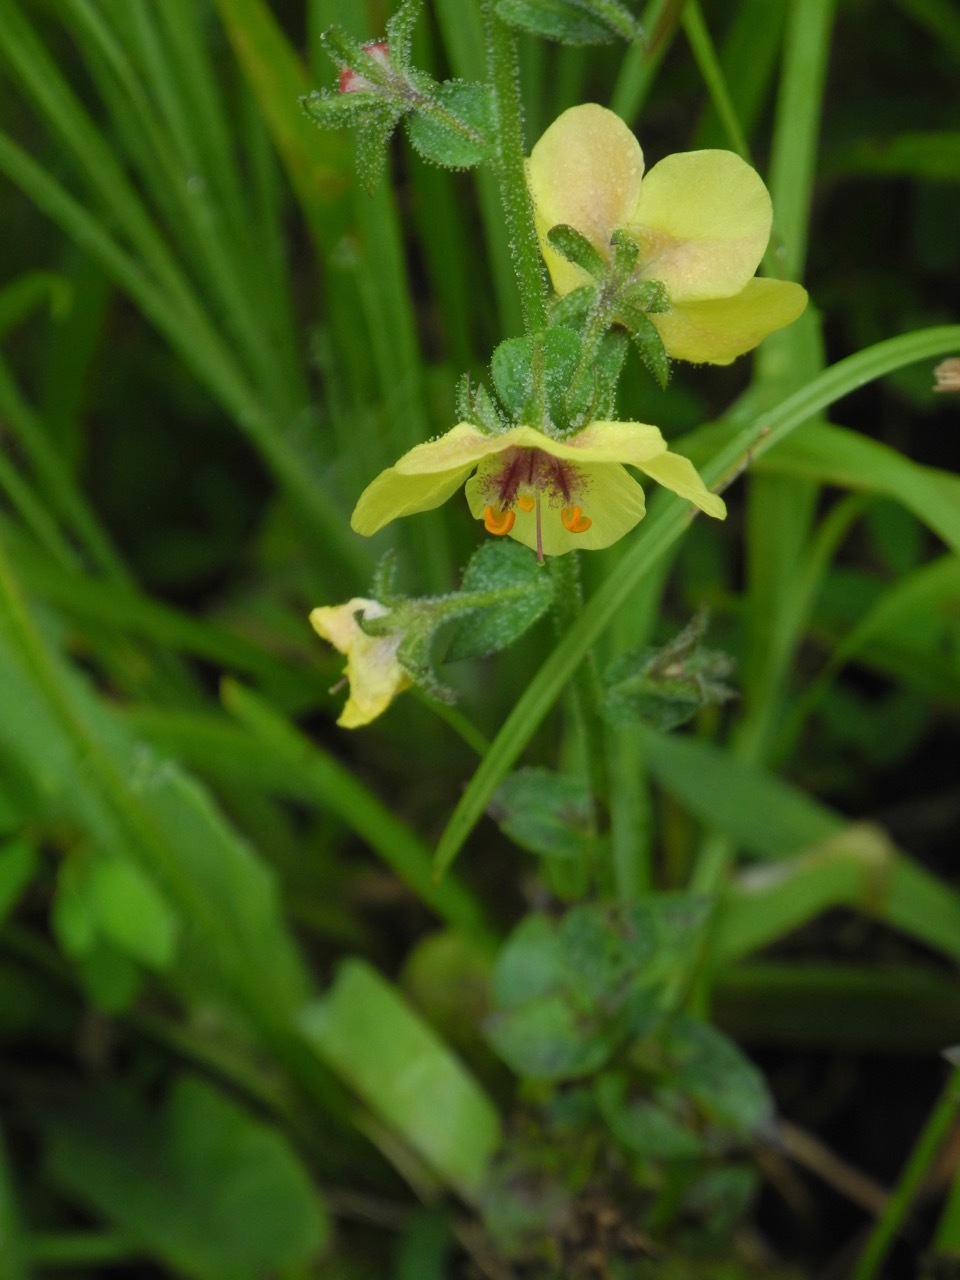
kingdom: Plantae
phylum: Tracheophyta
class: Magnoliopsida
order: Lamiales
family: Scrophulariaceae
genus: Verbascum
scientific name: Verbascum blattaria
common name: Moth mullein
